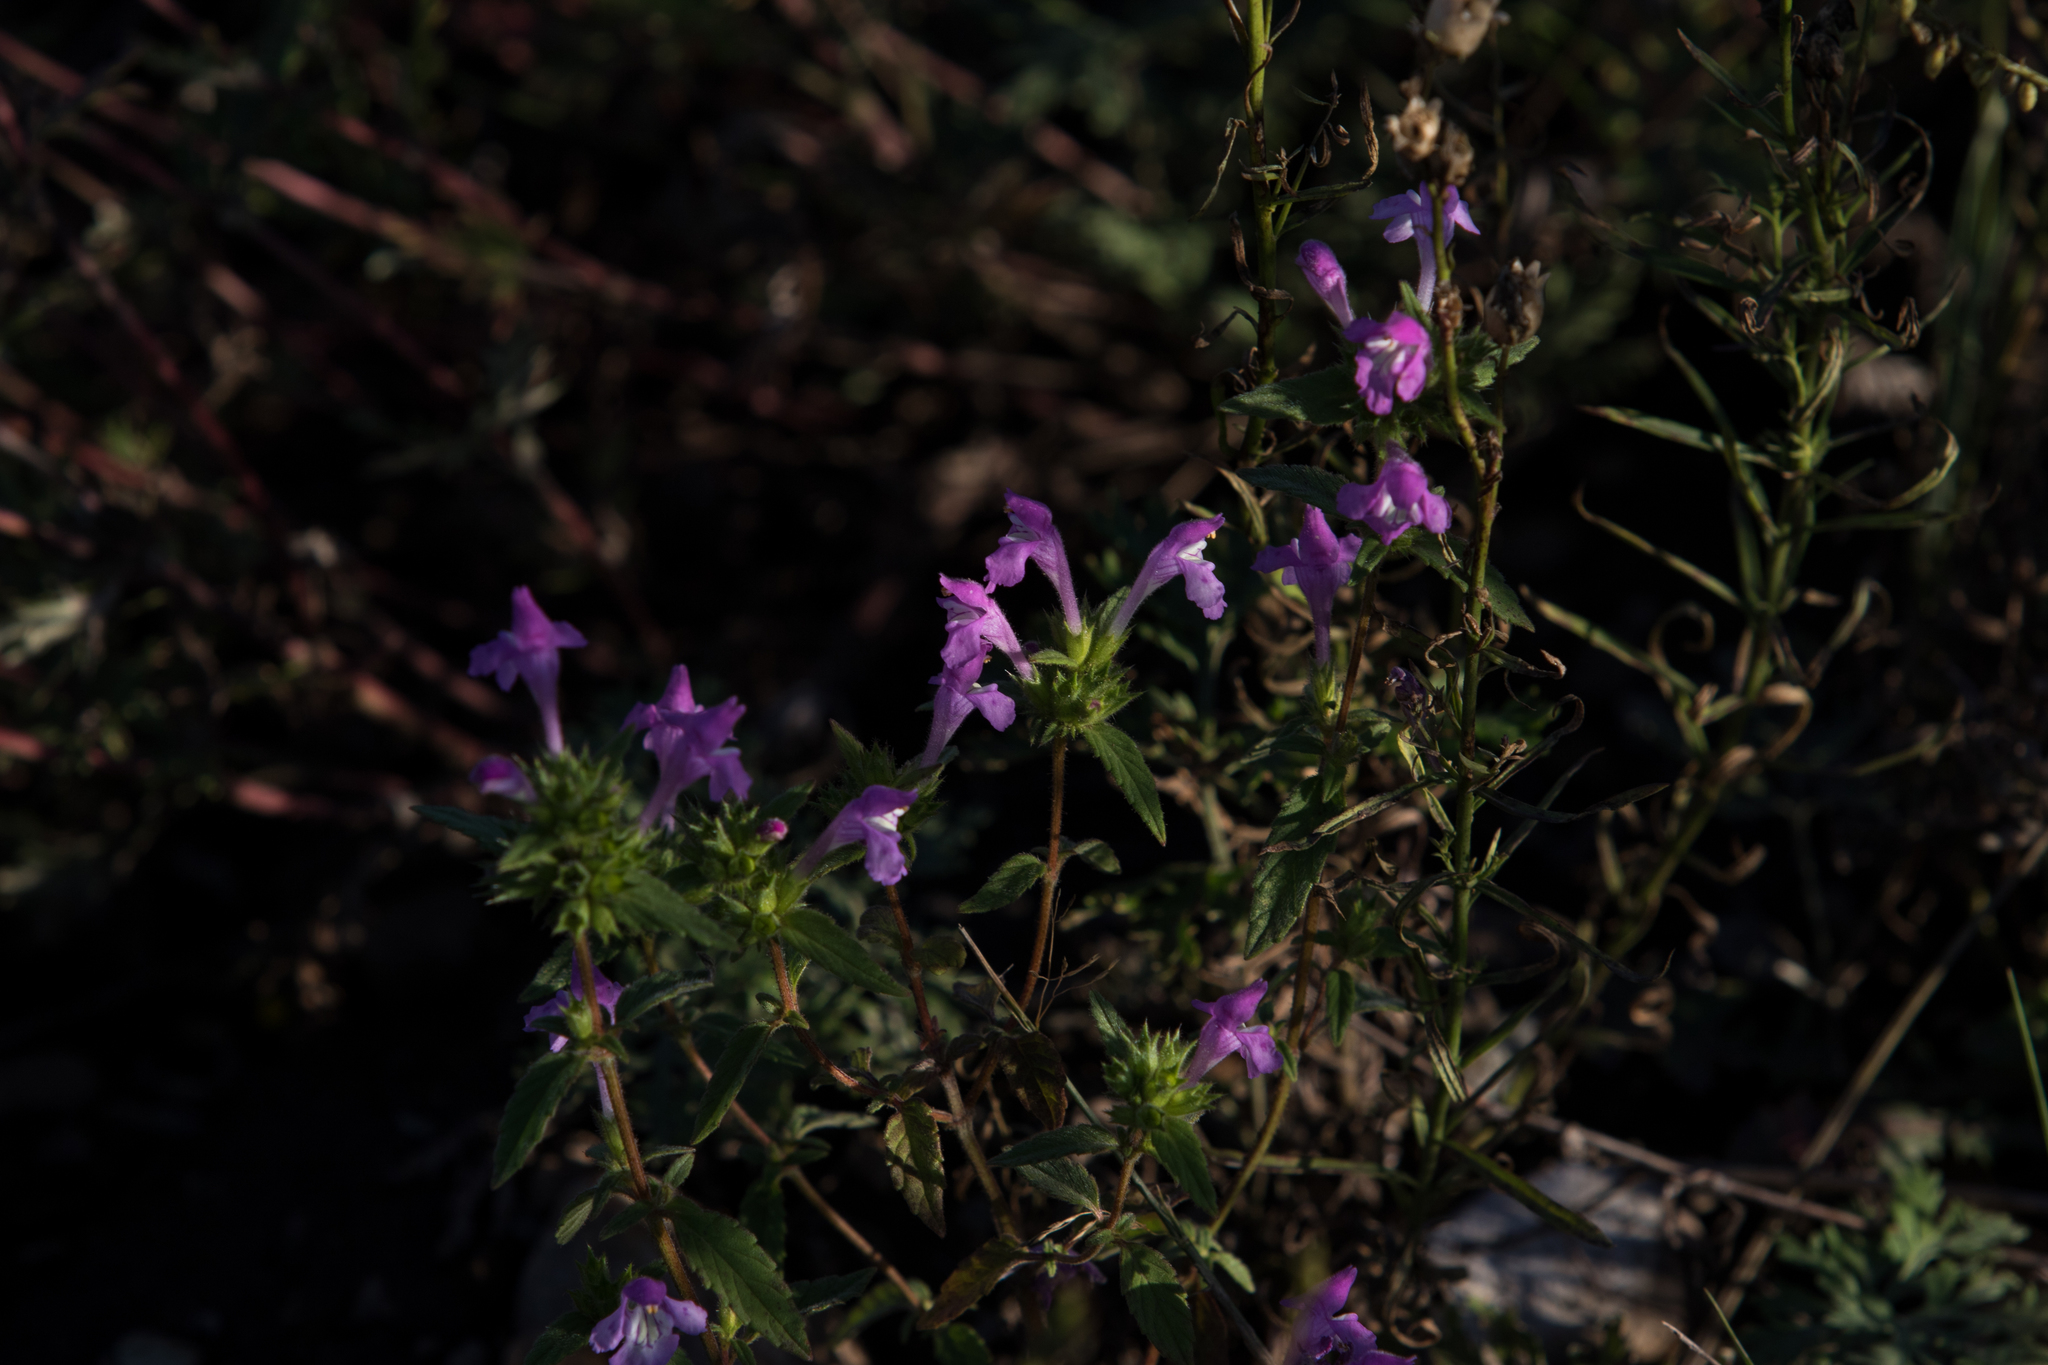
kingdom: Plantae
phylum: Tracheophyta
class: Magnoliopsida
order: Lamiales
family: Lamiaceae
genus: Galeopsis
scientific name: Galeopsis ladanum
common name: Broad-leaved hemp-nettle
